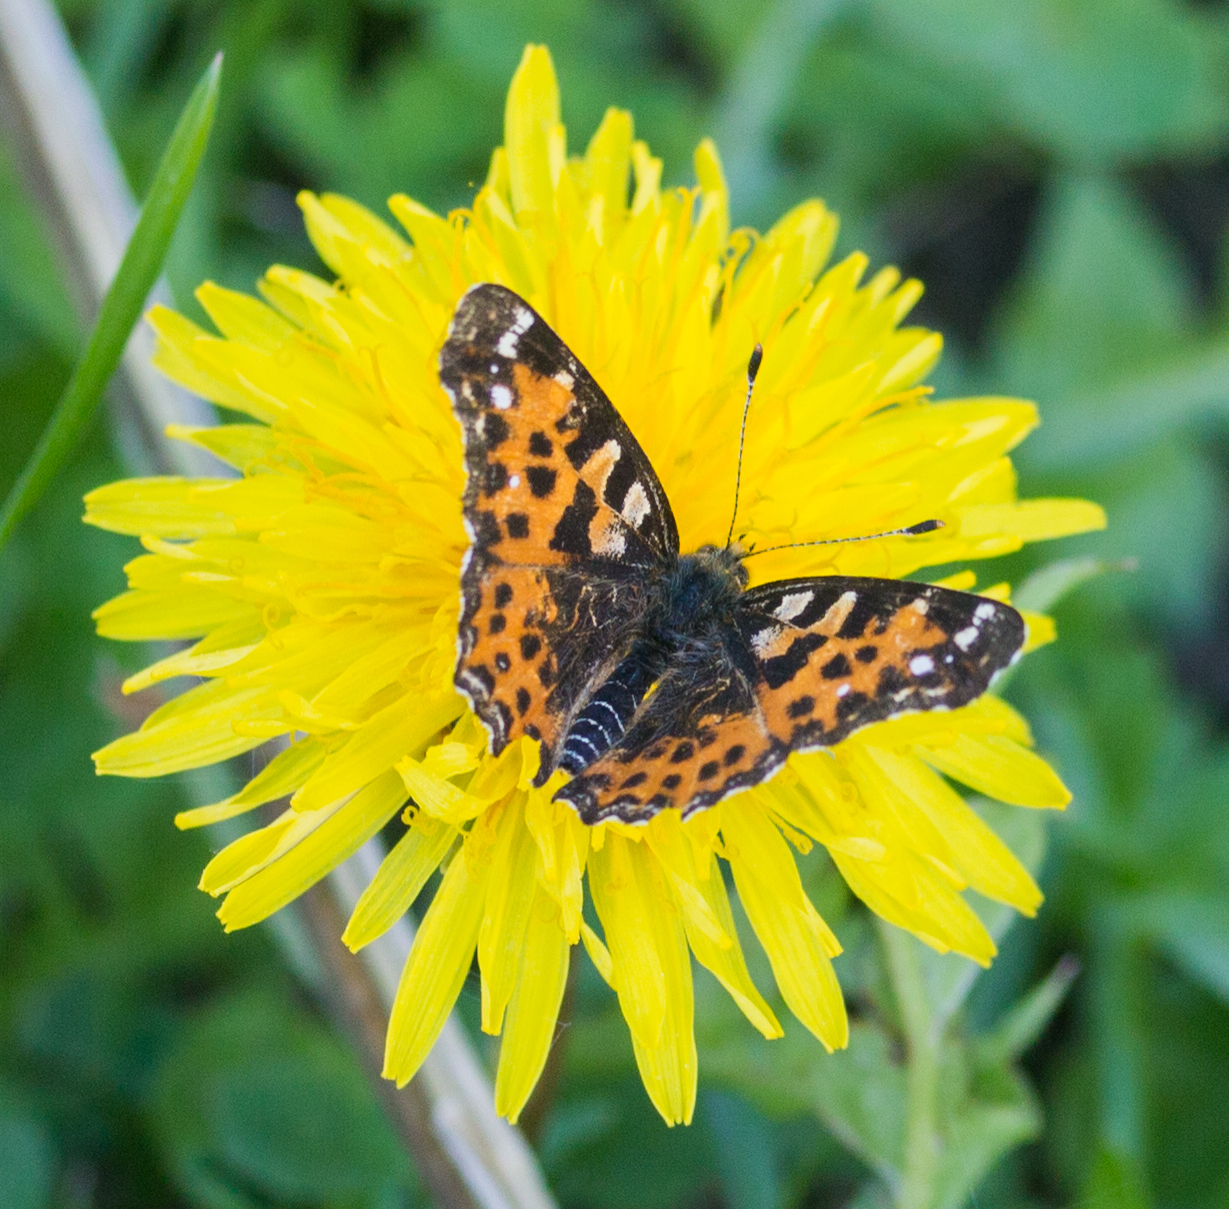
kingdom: Animalia
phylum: Arthropoda
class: Insecta
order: Lepidoptera
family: Nymphalidae
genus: Araschnia
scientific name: Araschnia levana
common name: Map butterfly
